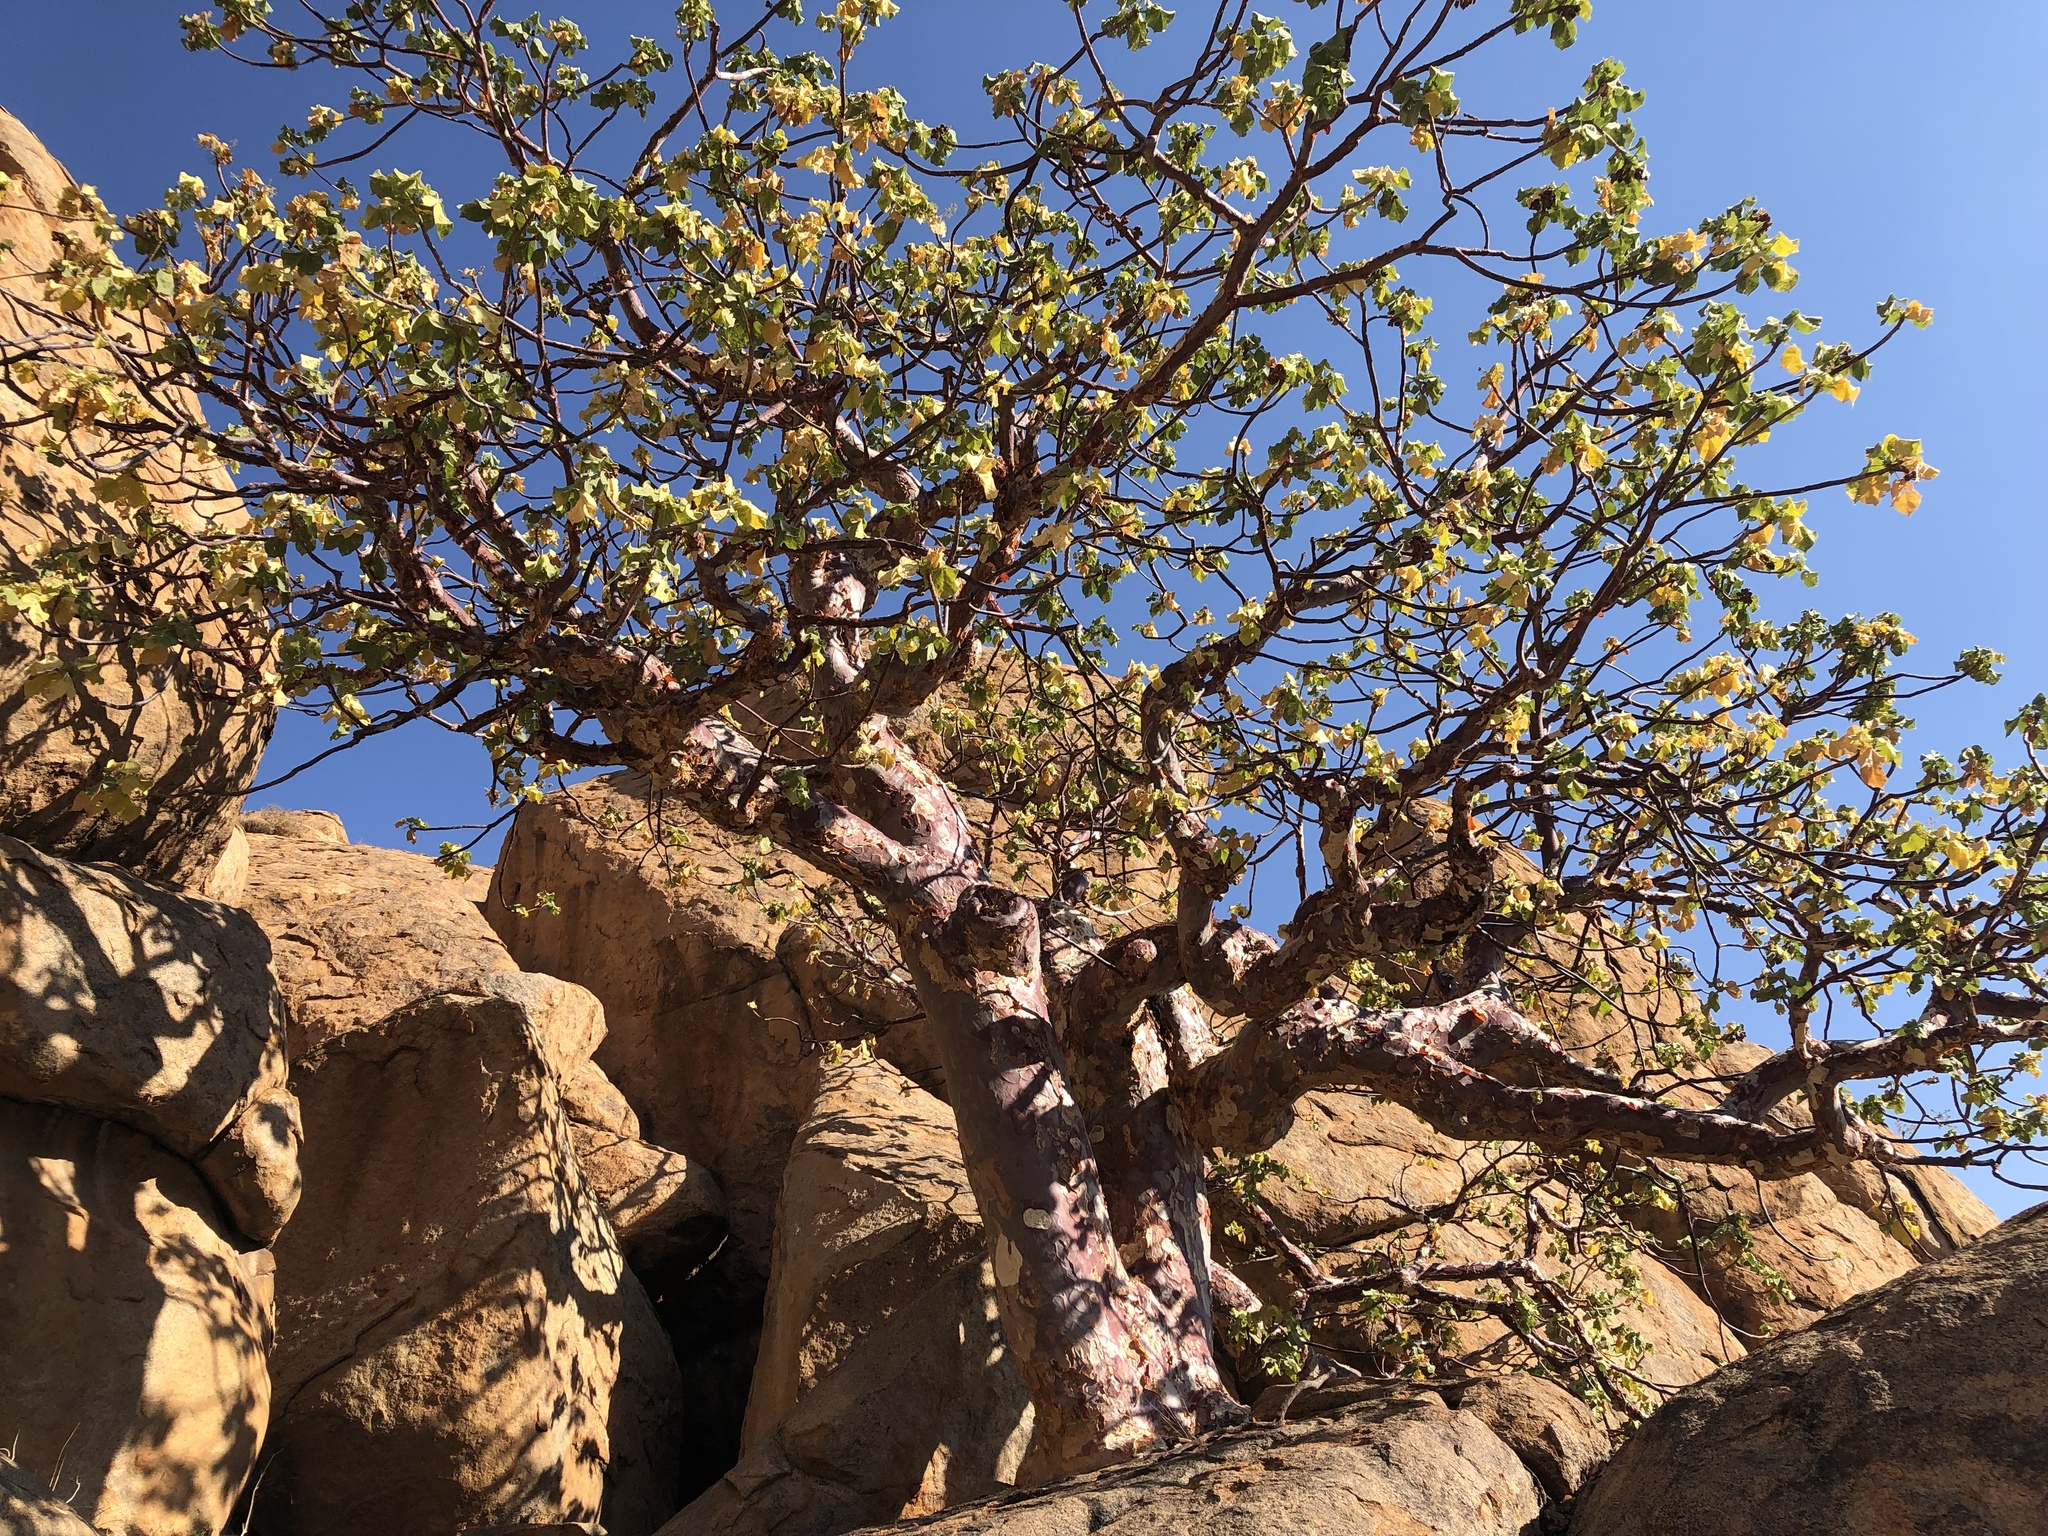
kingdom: Plantae
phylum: Tracheophyta
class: Magnoliopsida
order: Malvales
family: Malvaceae
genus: Sterculia
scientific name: Sterculia africana
